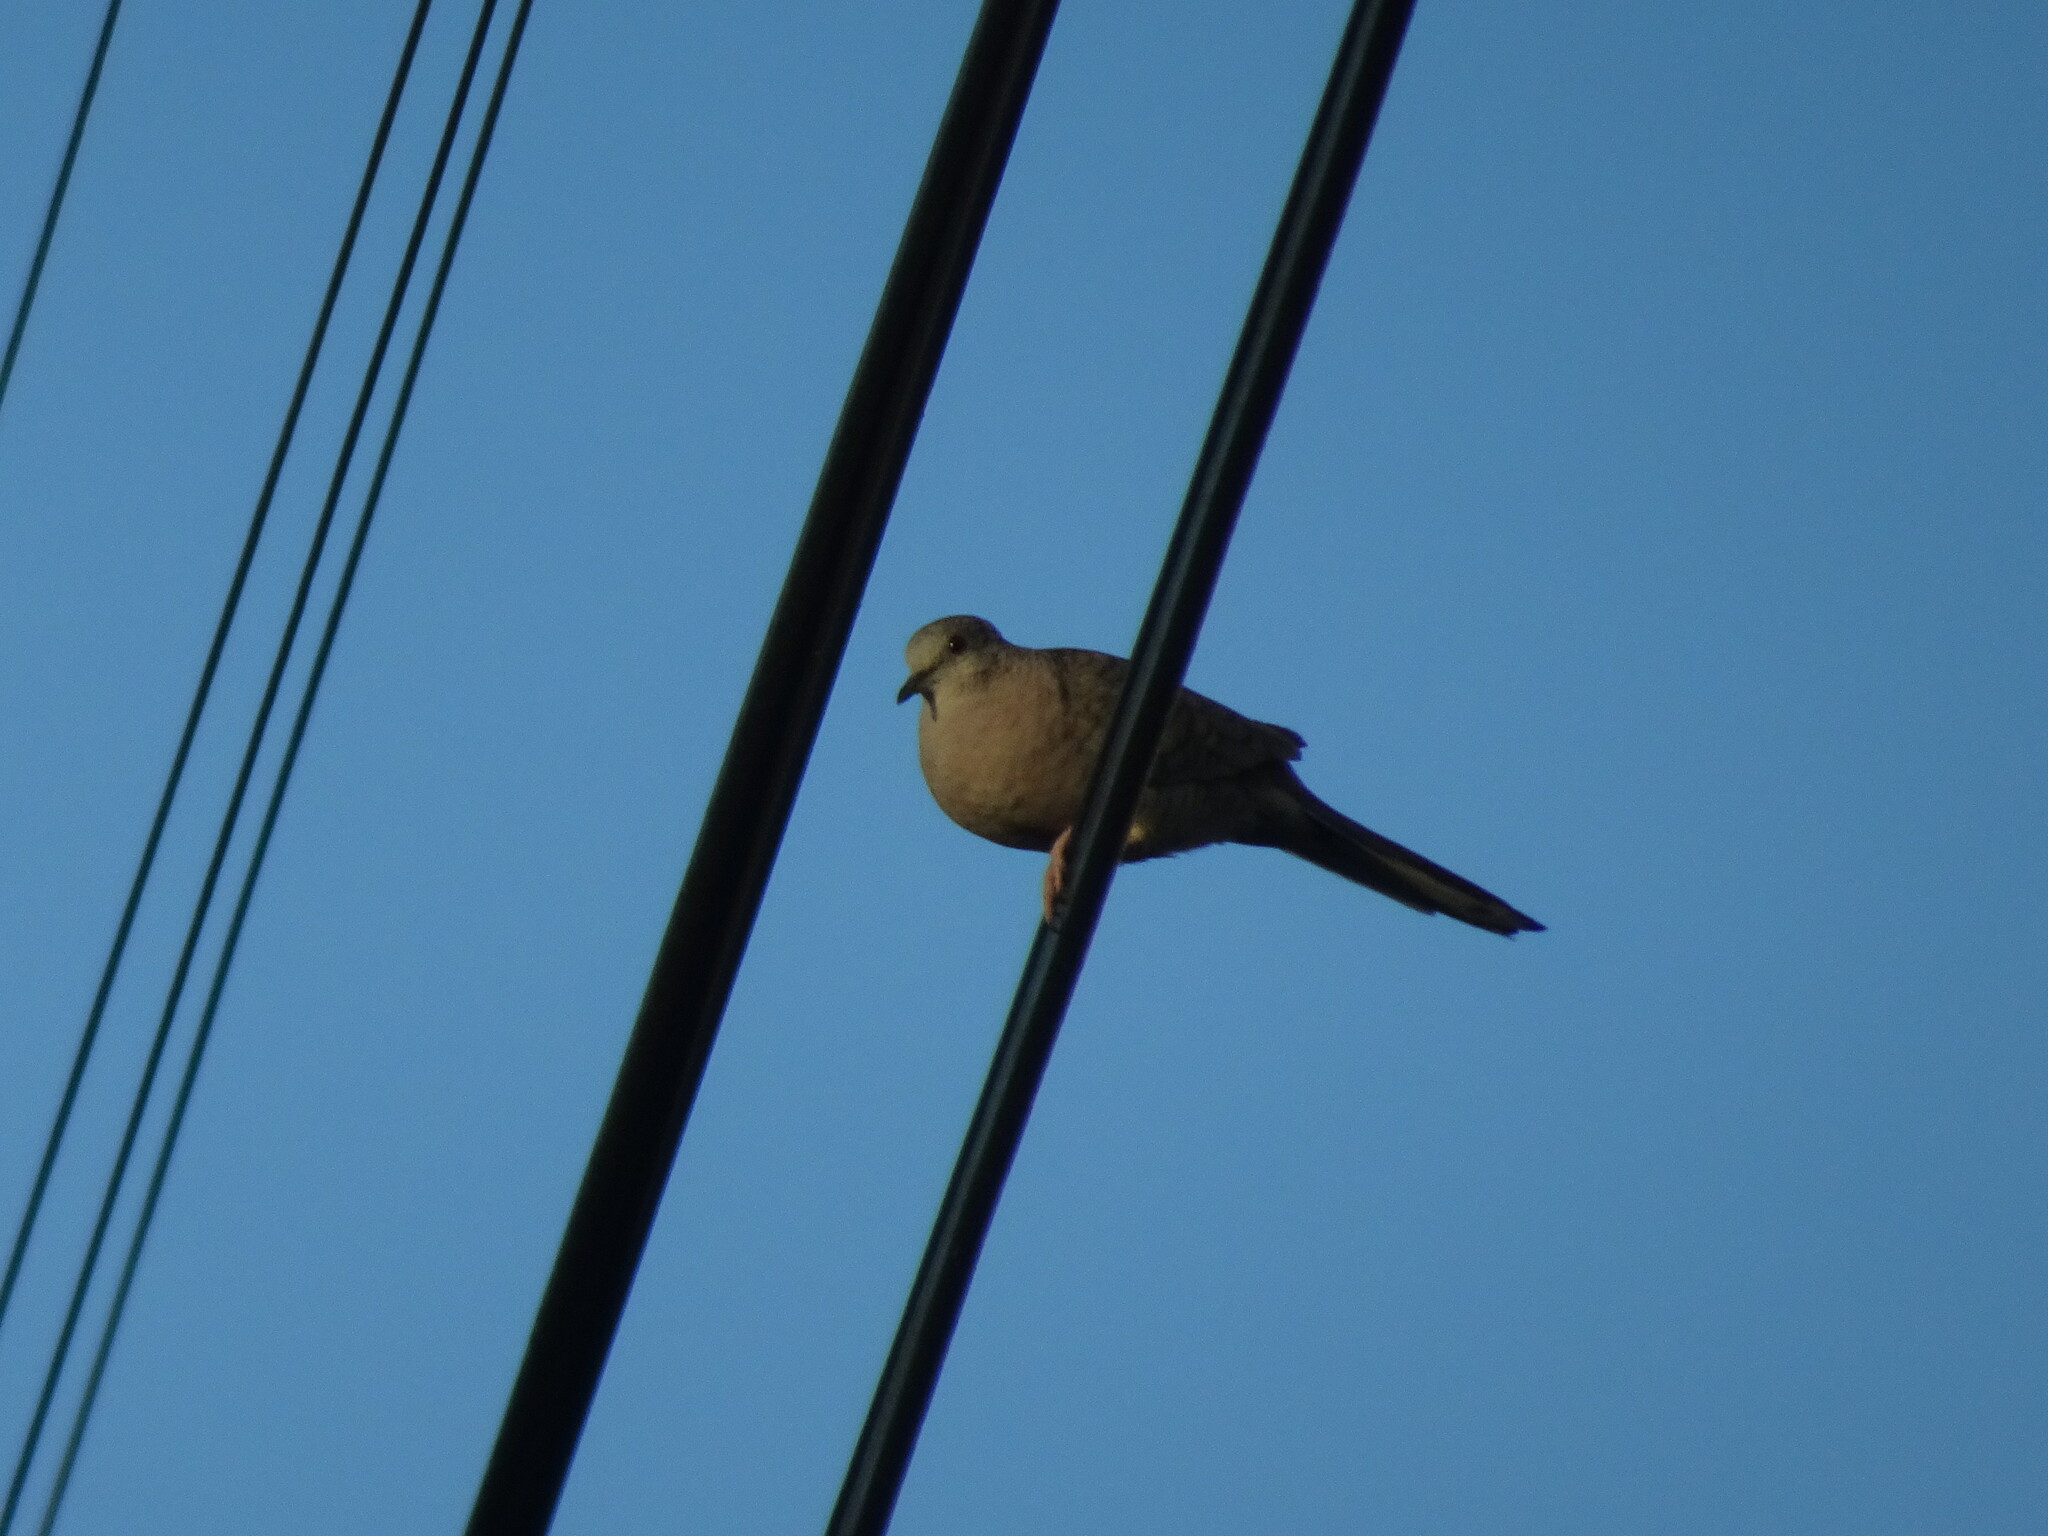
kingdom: Animalia
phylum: Chordata
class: Aves
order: Columbiformes
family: Columbidae
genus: Columbina
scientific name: Columbina inca
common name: Inca dove
